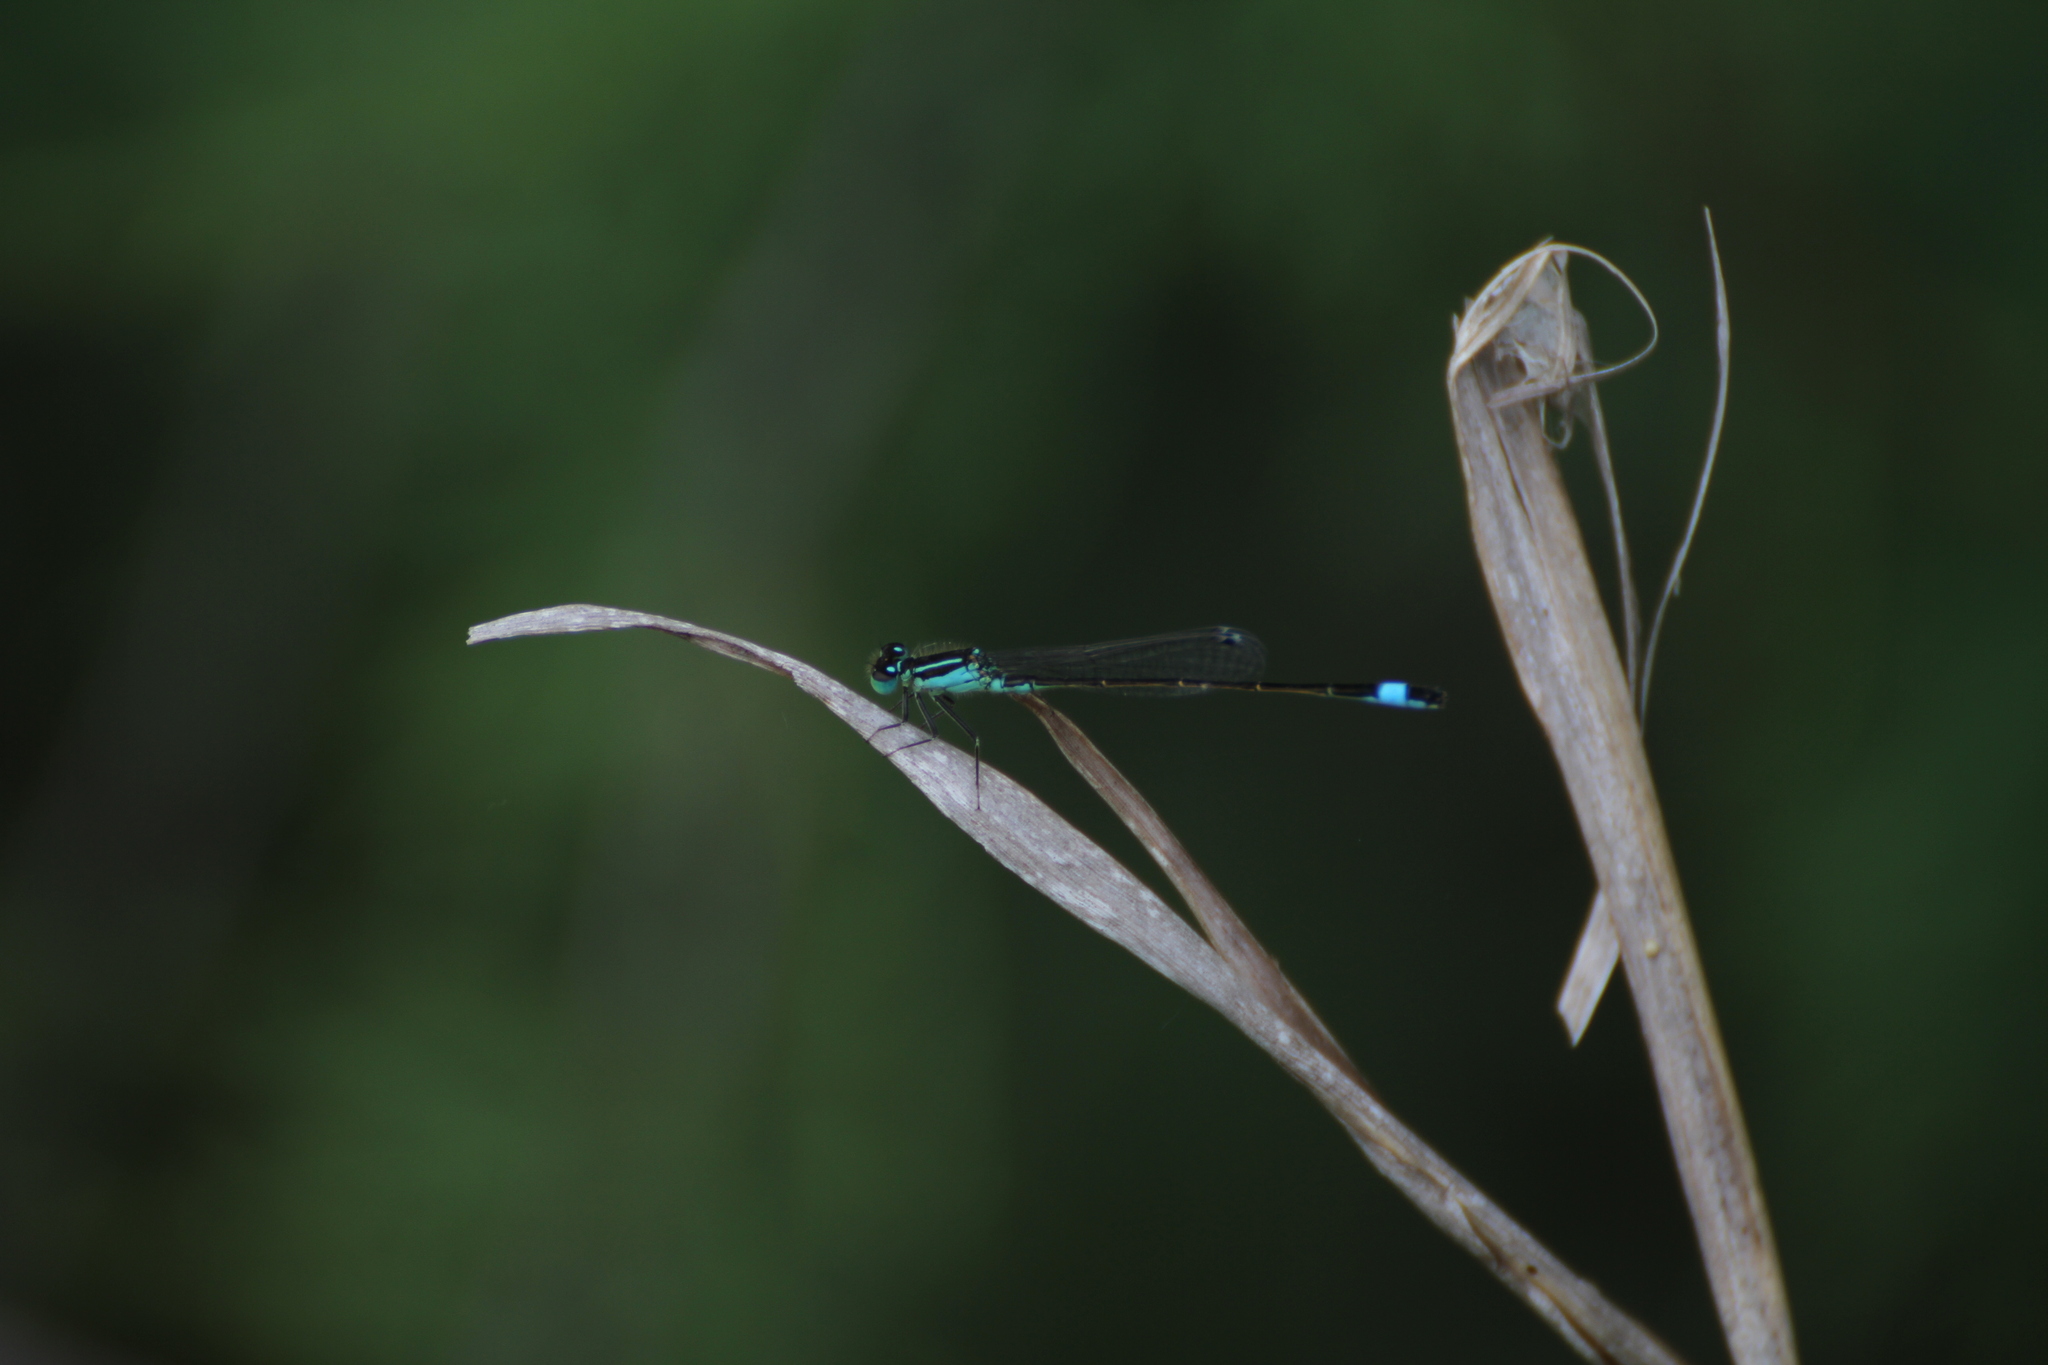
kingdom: Animalia
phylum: Arthropoda
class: Insecta
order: Odonata
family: Coenagrionidae
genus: Ischnura
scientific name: Ischnura elegans
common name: Blue-tailed damselfly
